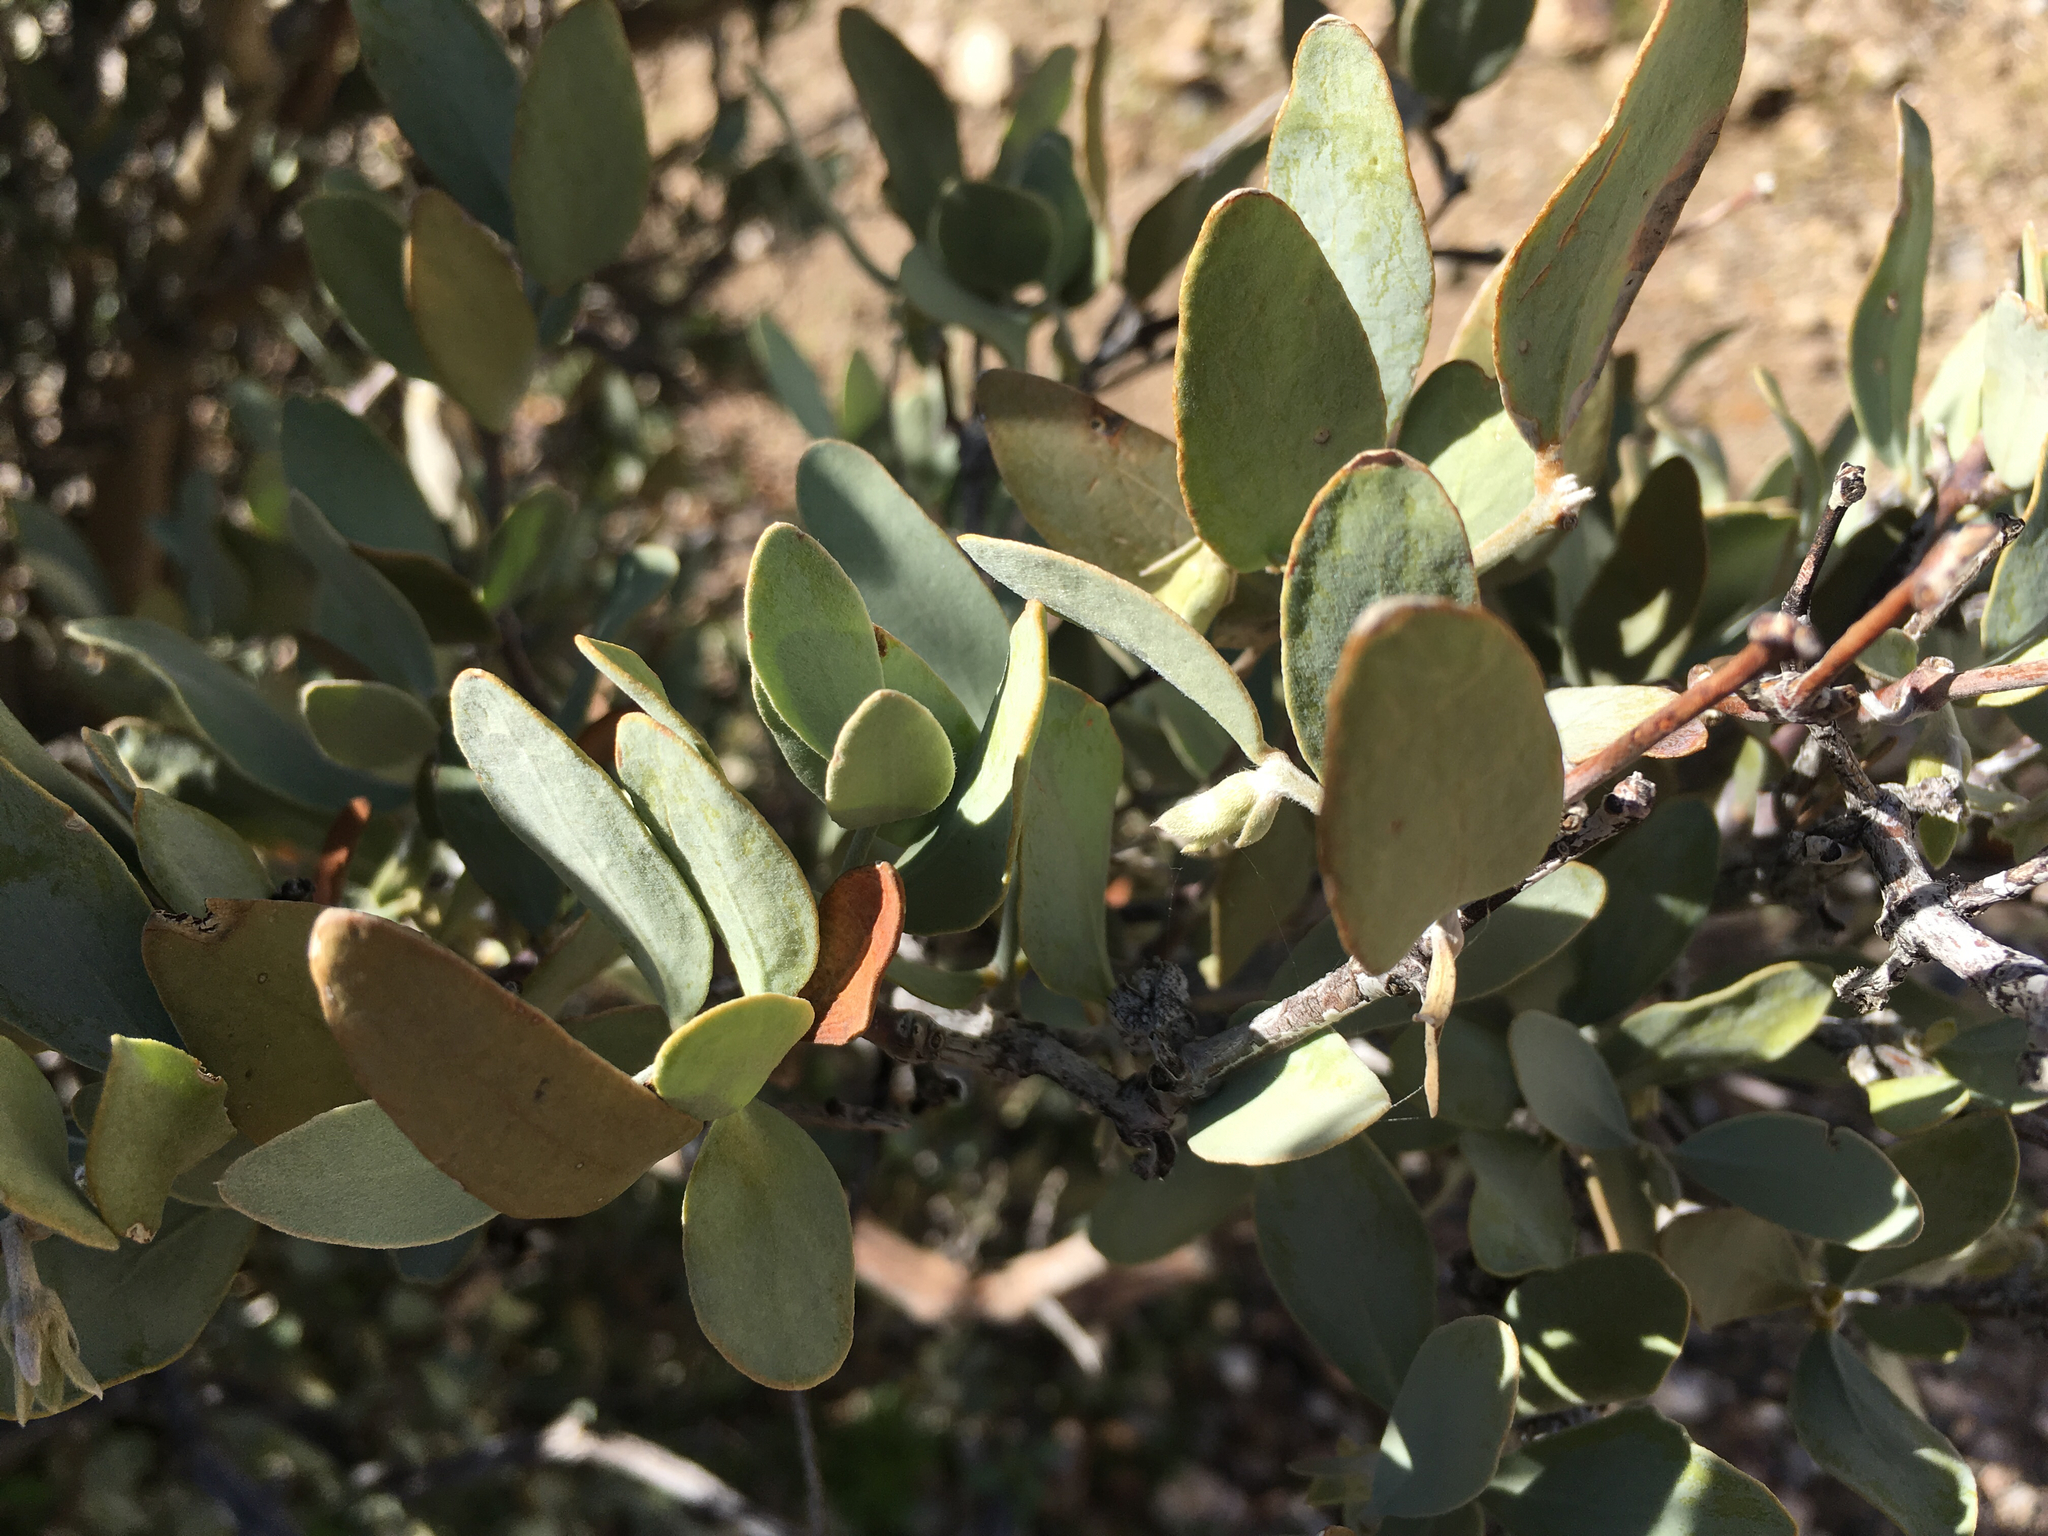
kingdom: Plantae
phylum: Tracheophyta
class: Magnoliopsida
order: Caryophyllales
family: Simmondsiaceae
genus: Simmondsia
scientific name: Simmondsia chinensis
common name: Jojoba
